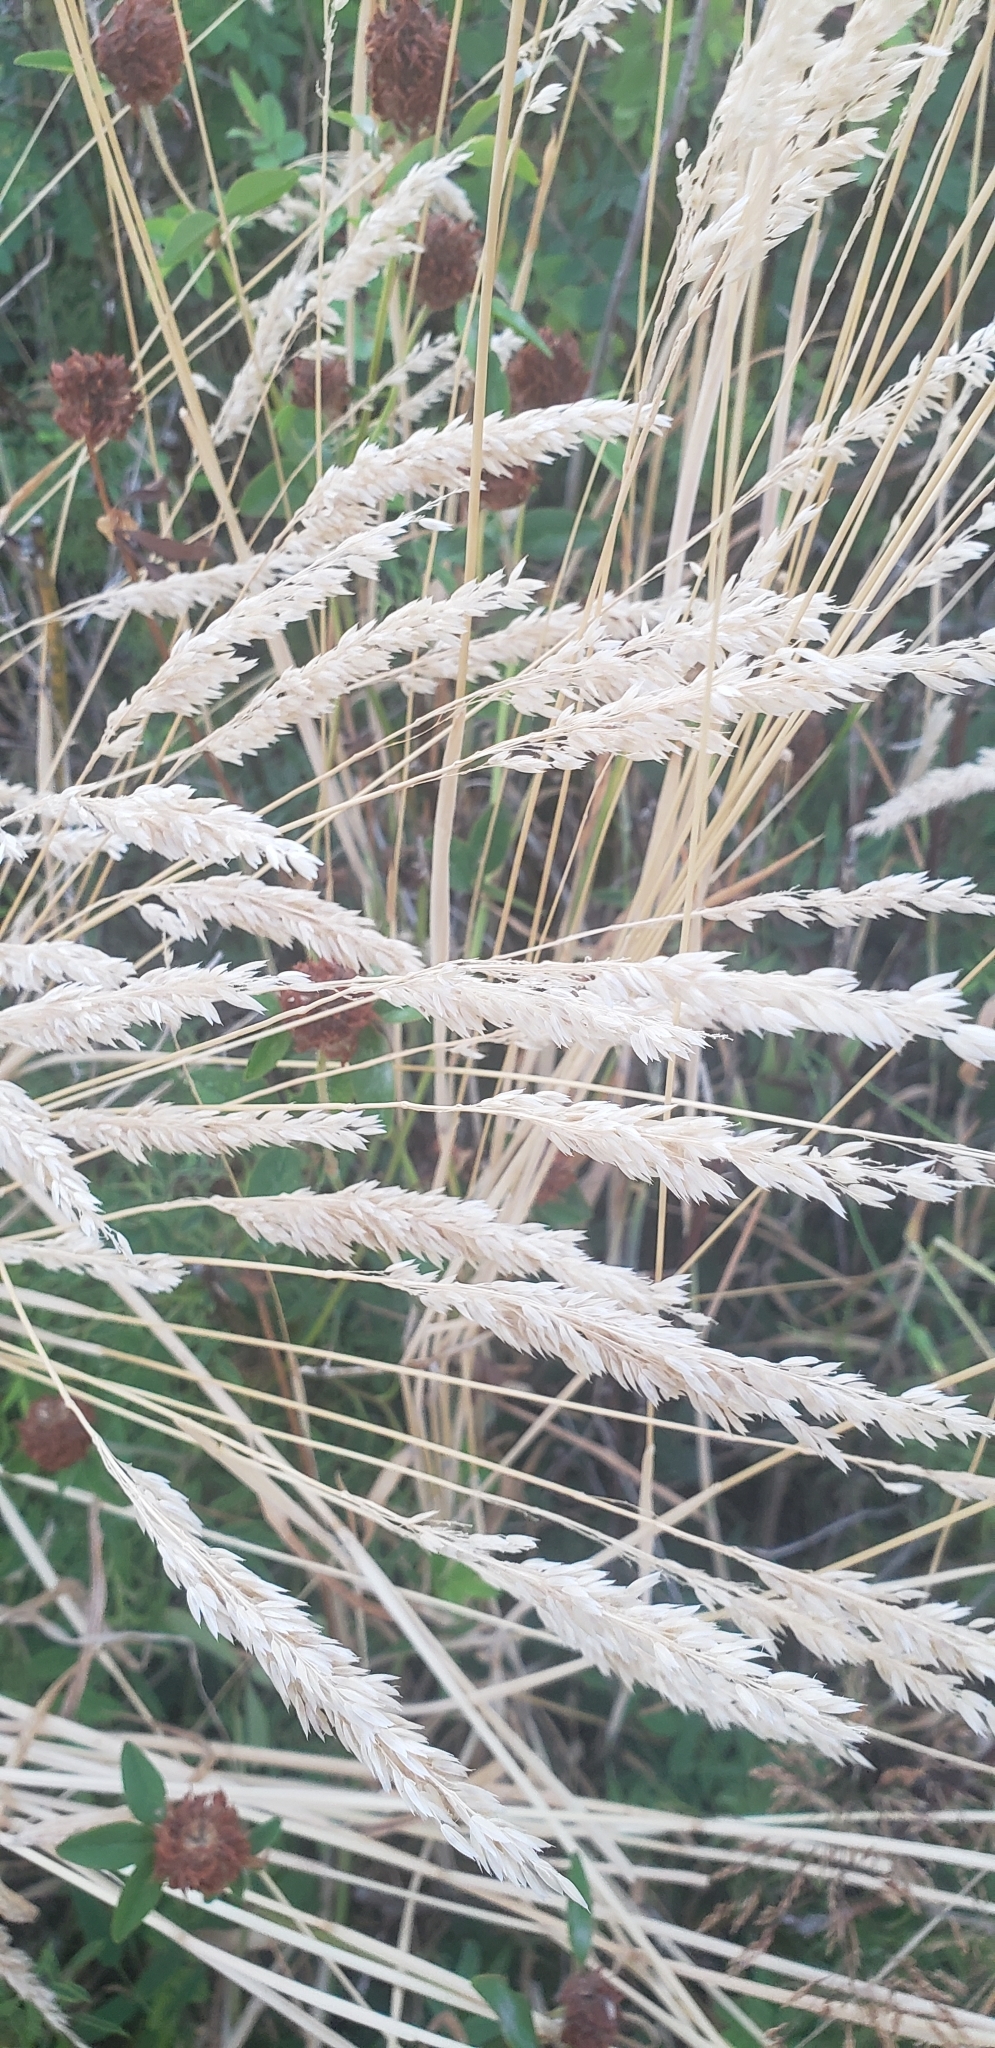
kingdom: Plantae
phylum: Tracheophyta
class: Liliopsida
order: Poales
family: Poaceae
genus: Holcus
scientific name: Holcus lanatus
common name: Yorkshire-fog
